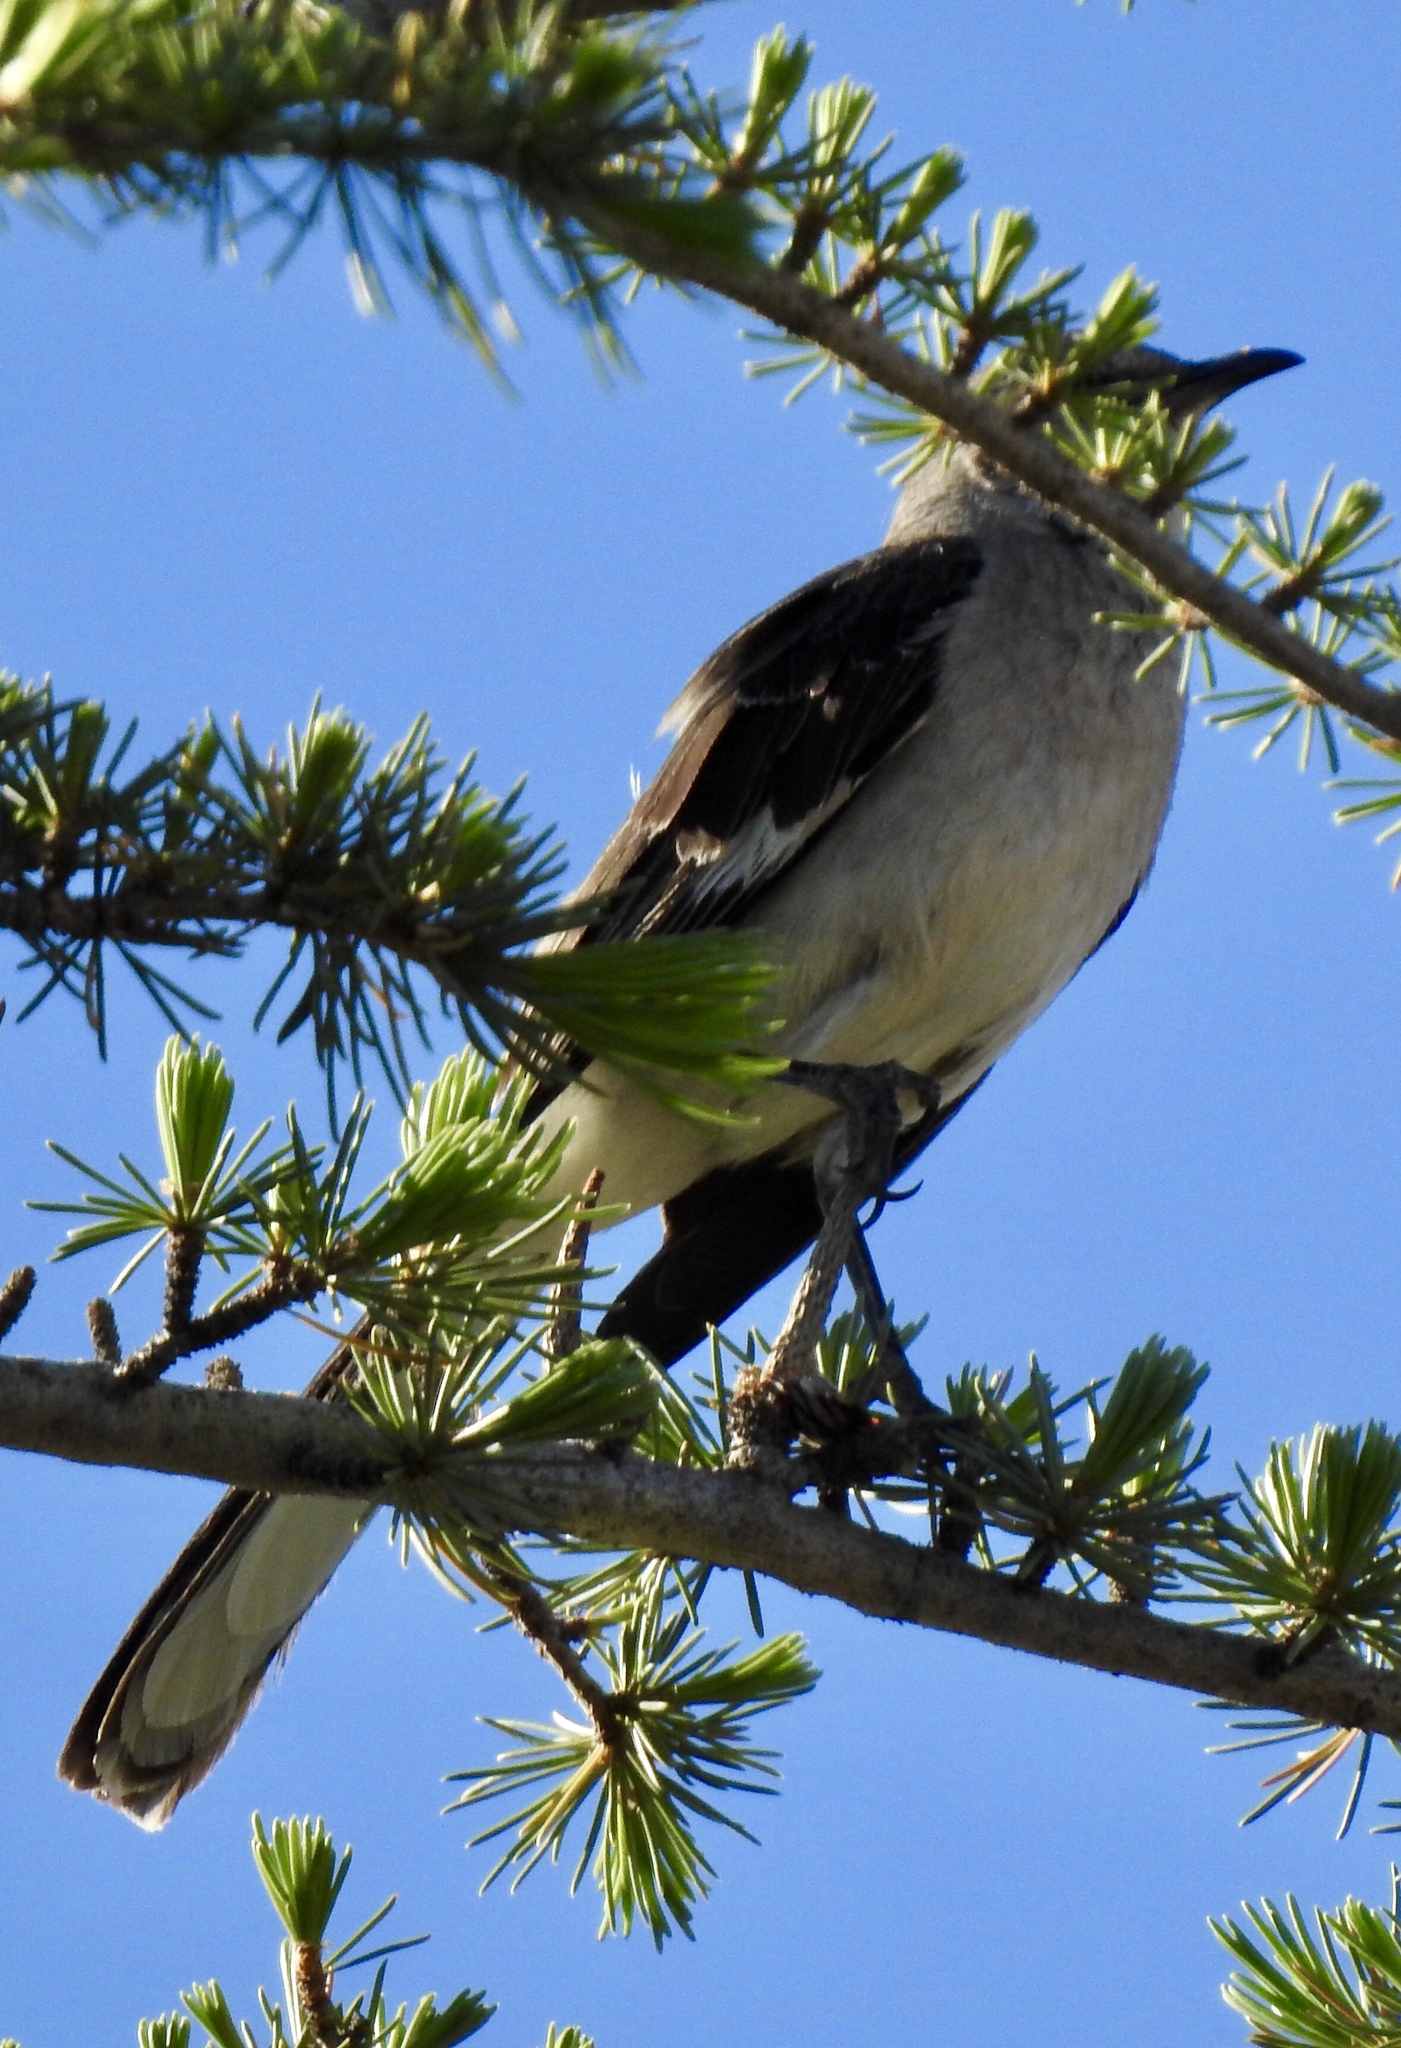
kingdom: Animalia
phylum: Chordata
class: Aves
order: Passeriformes
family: Mimidae
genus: Mimus
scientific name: Mimus polyglottos
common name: Northern mockingbird
